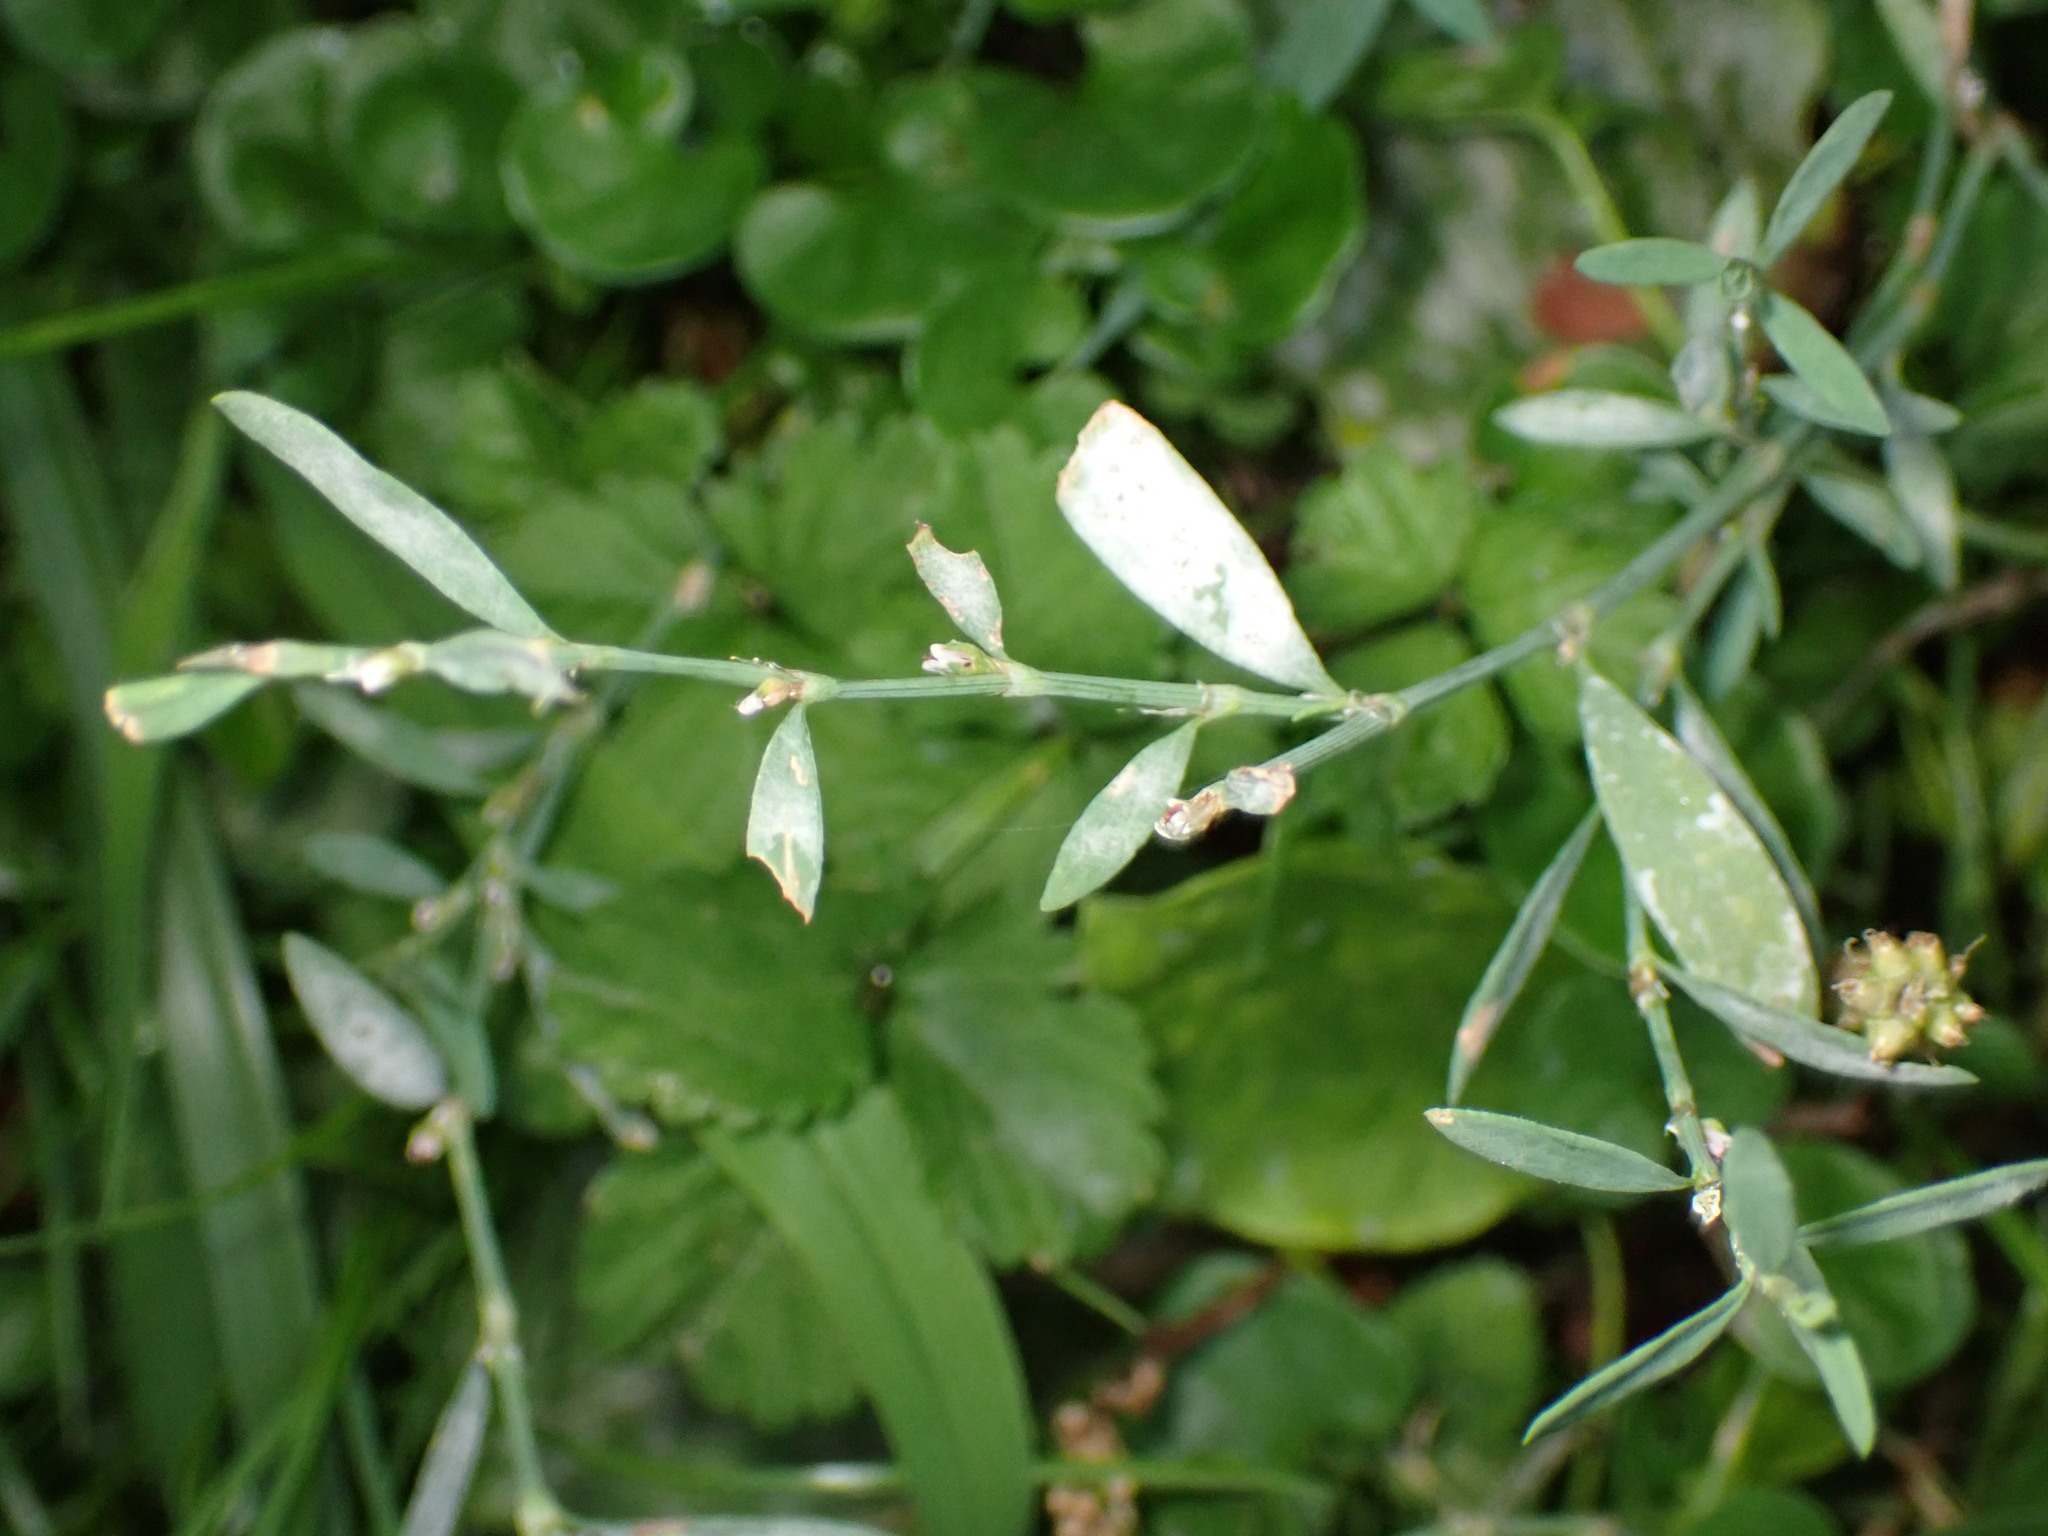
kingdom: Fungi
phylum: Ascomycota
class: Leotiomycetes
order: Helotiales
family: Erysiphaceae
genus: Erysiphe
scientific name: Erysiphe polygoni
